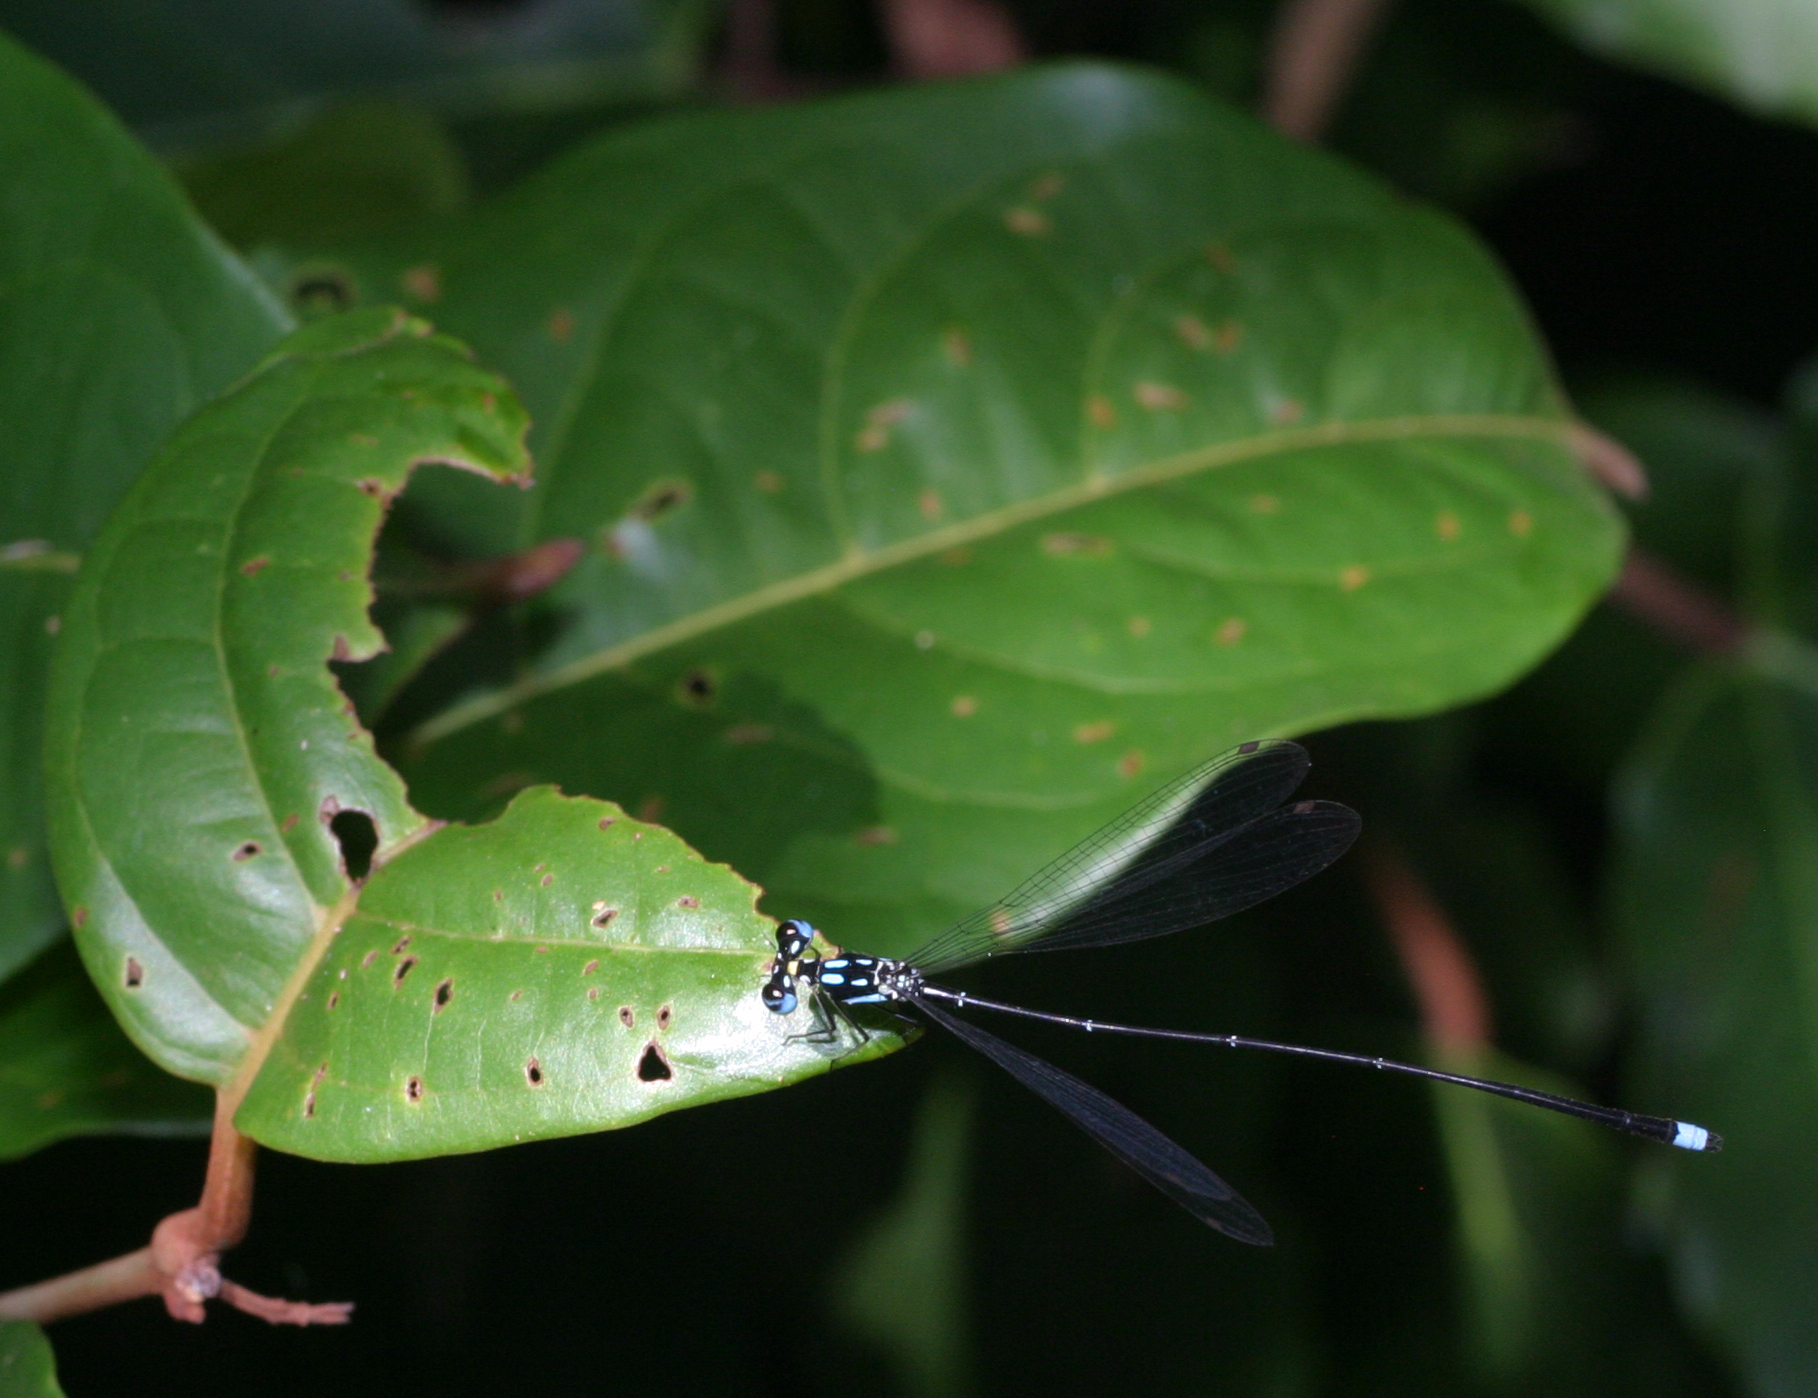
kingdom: Animalia
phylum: Arthropoda
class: Insecta
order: Odonata
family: Platycnemididae
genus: Coeliccia
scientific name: Coeliccia didyma
